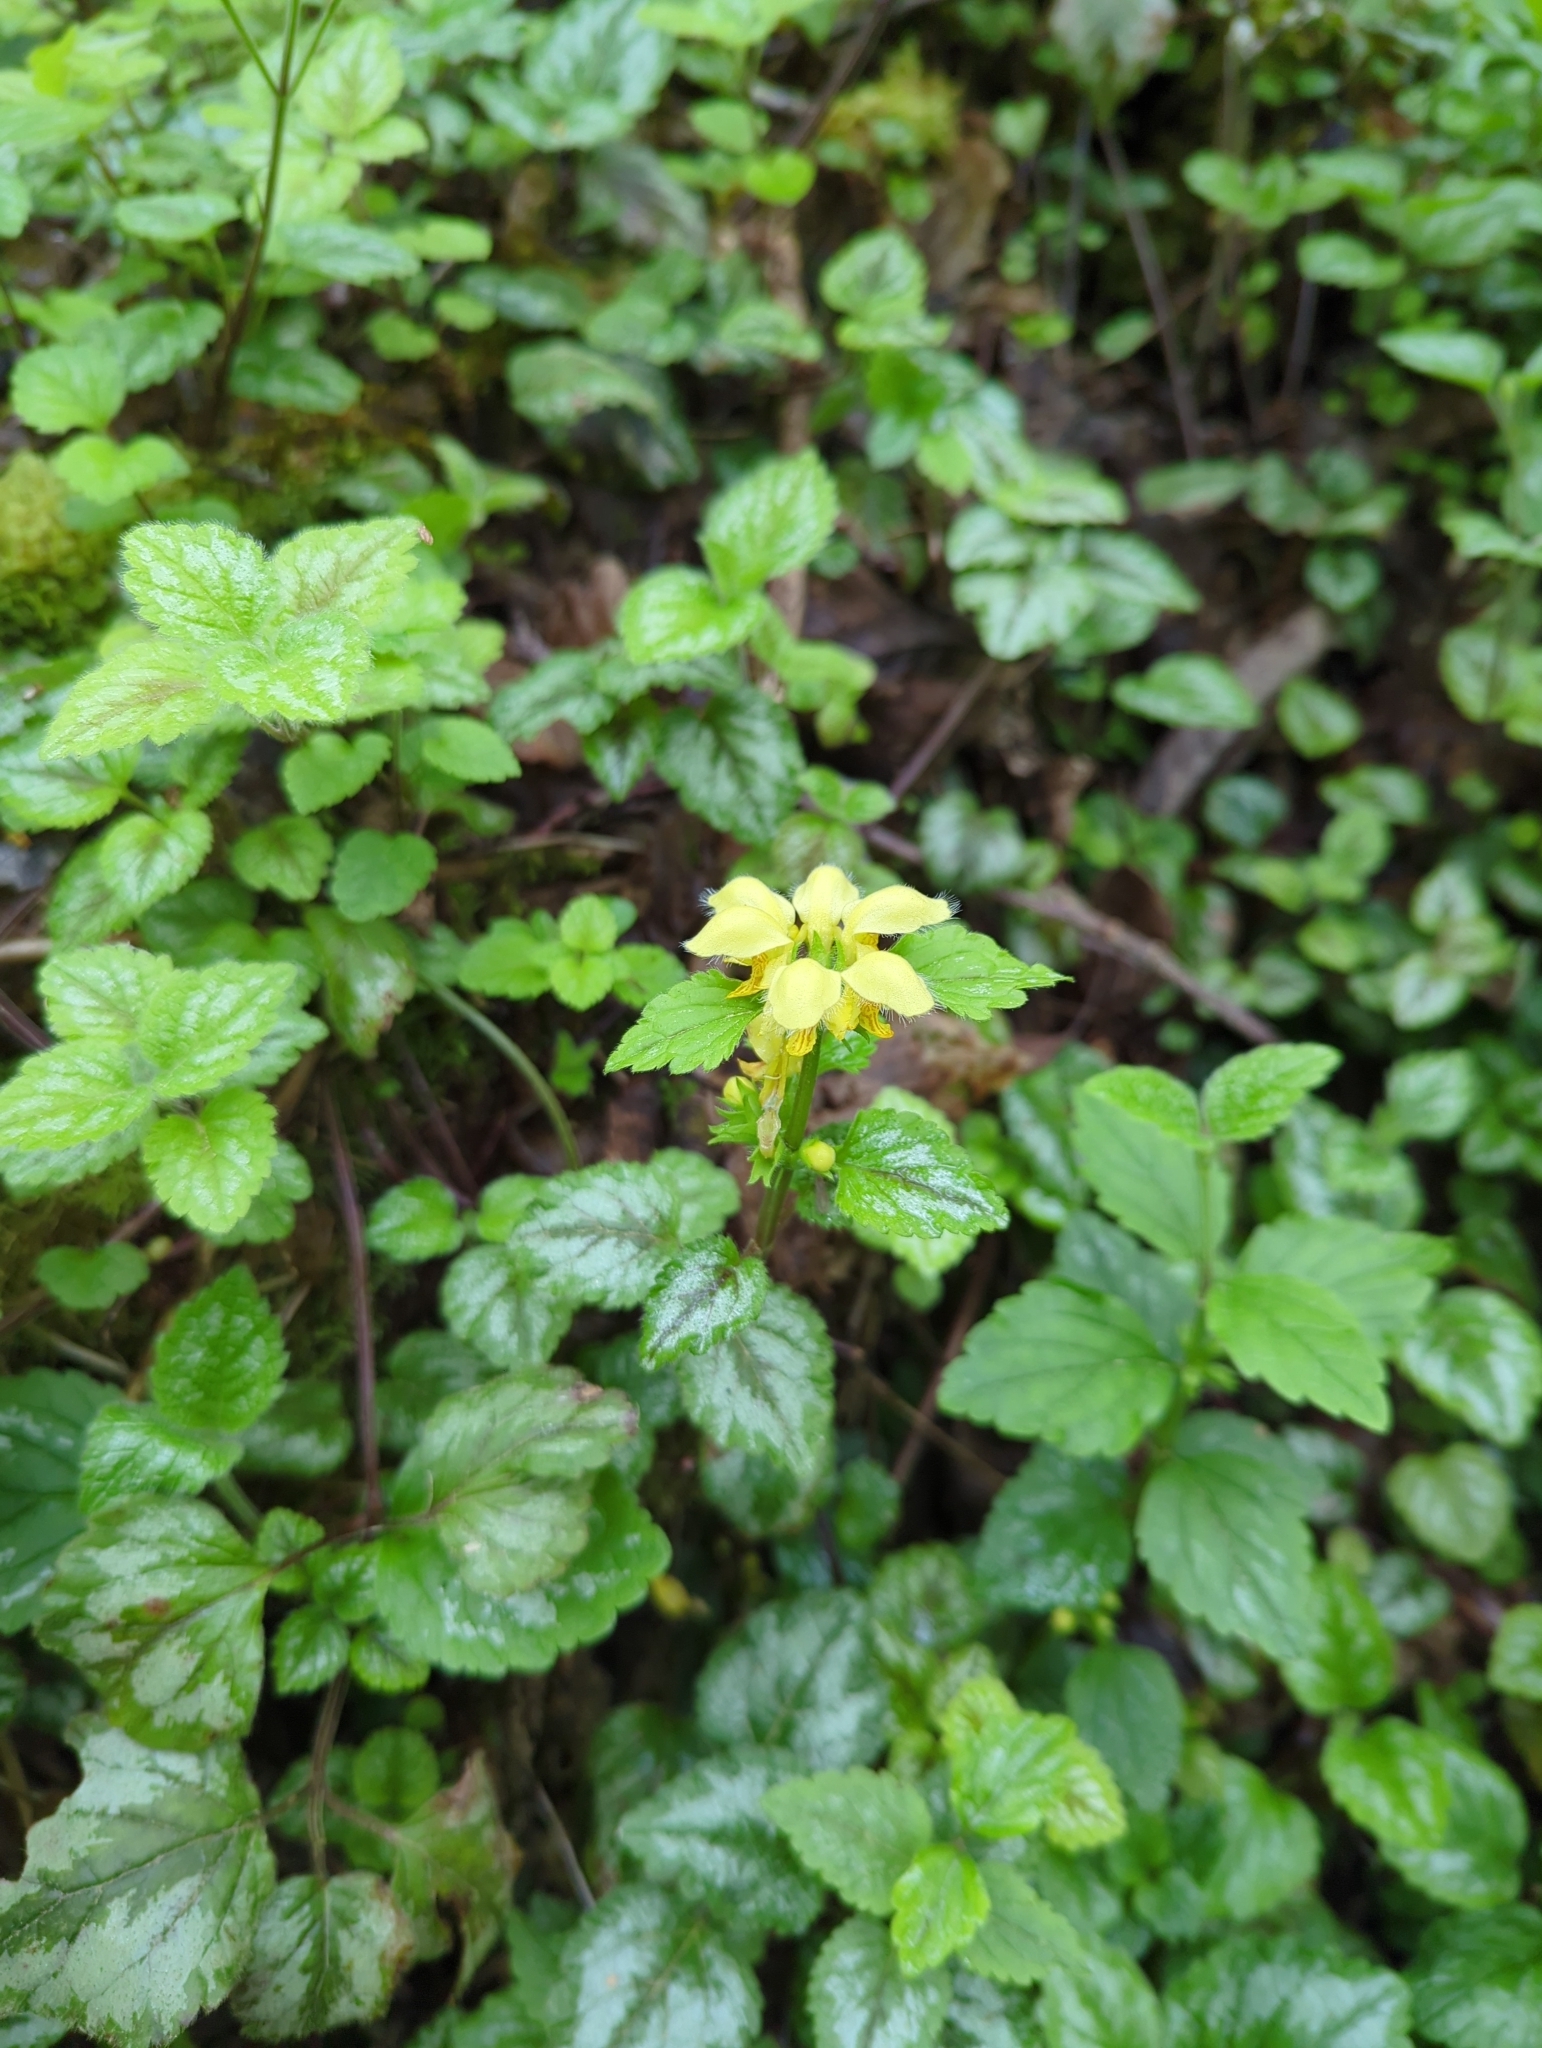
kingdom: Plantae
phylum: Tracheophyta
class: Magnoliopsida
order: Lamiales
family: Lamiaceae
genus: Lamium
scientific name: Lamium galeobdolon
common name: Yellow archangel
